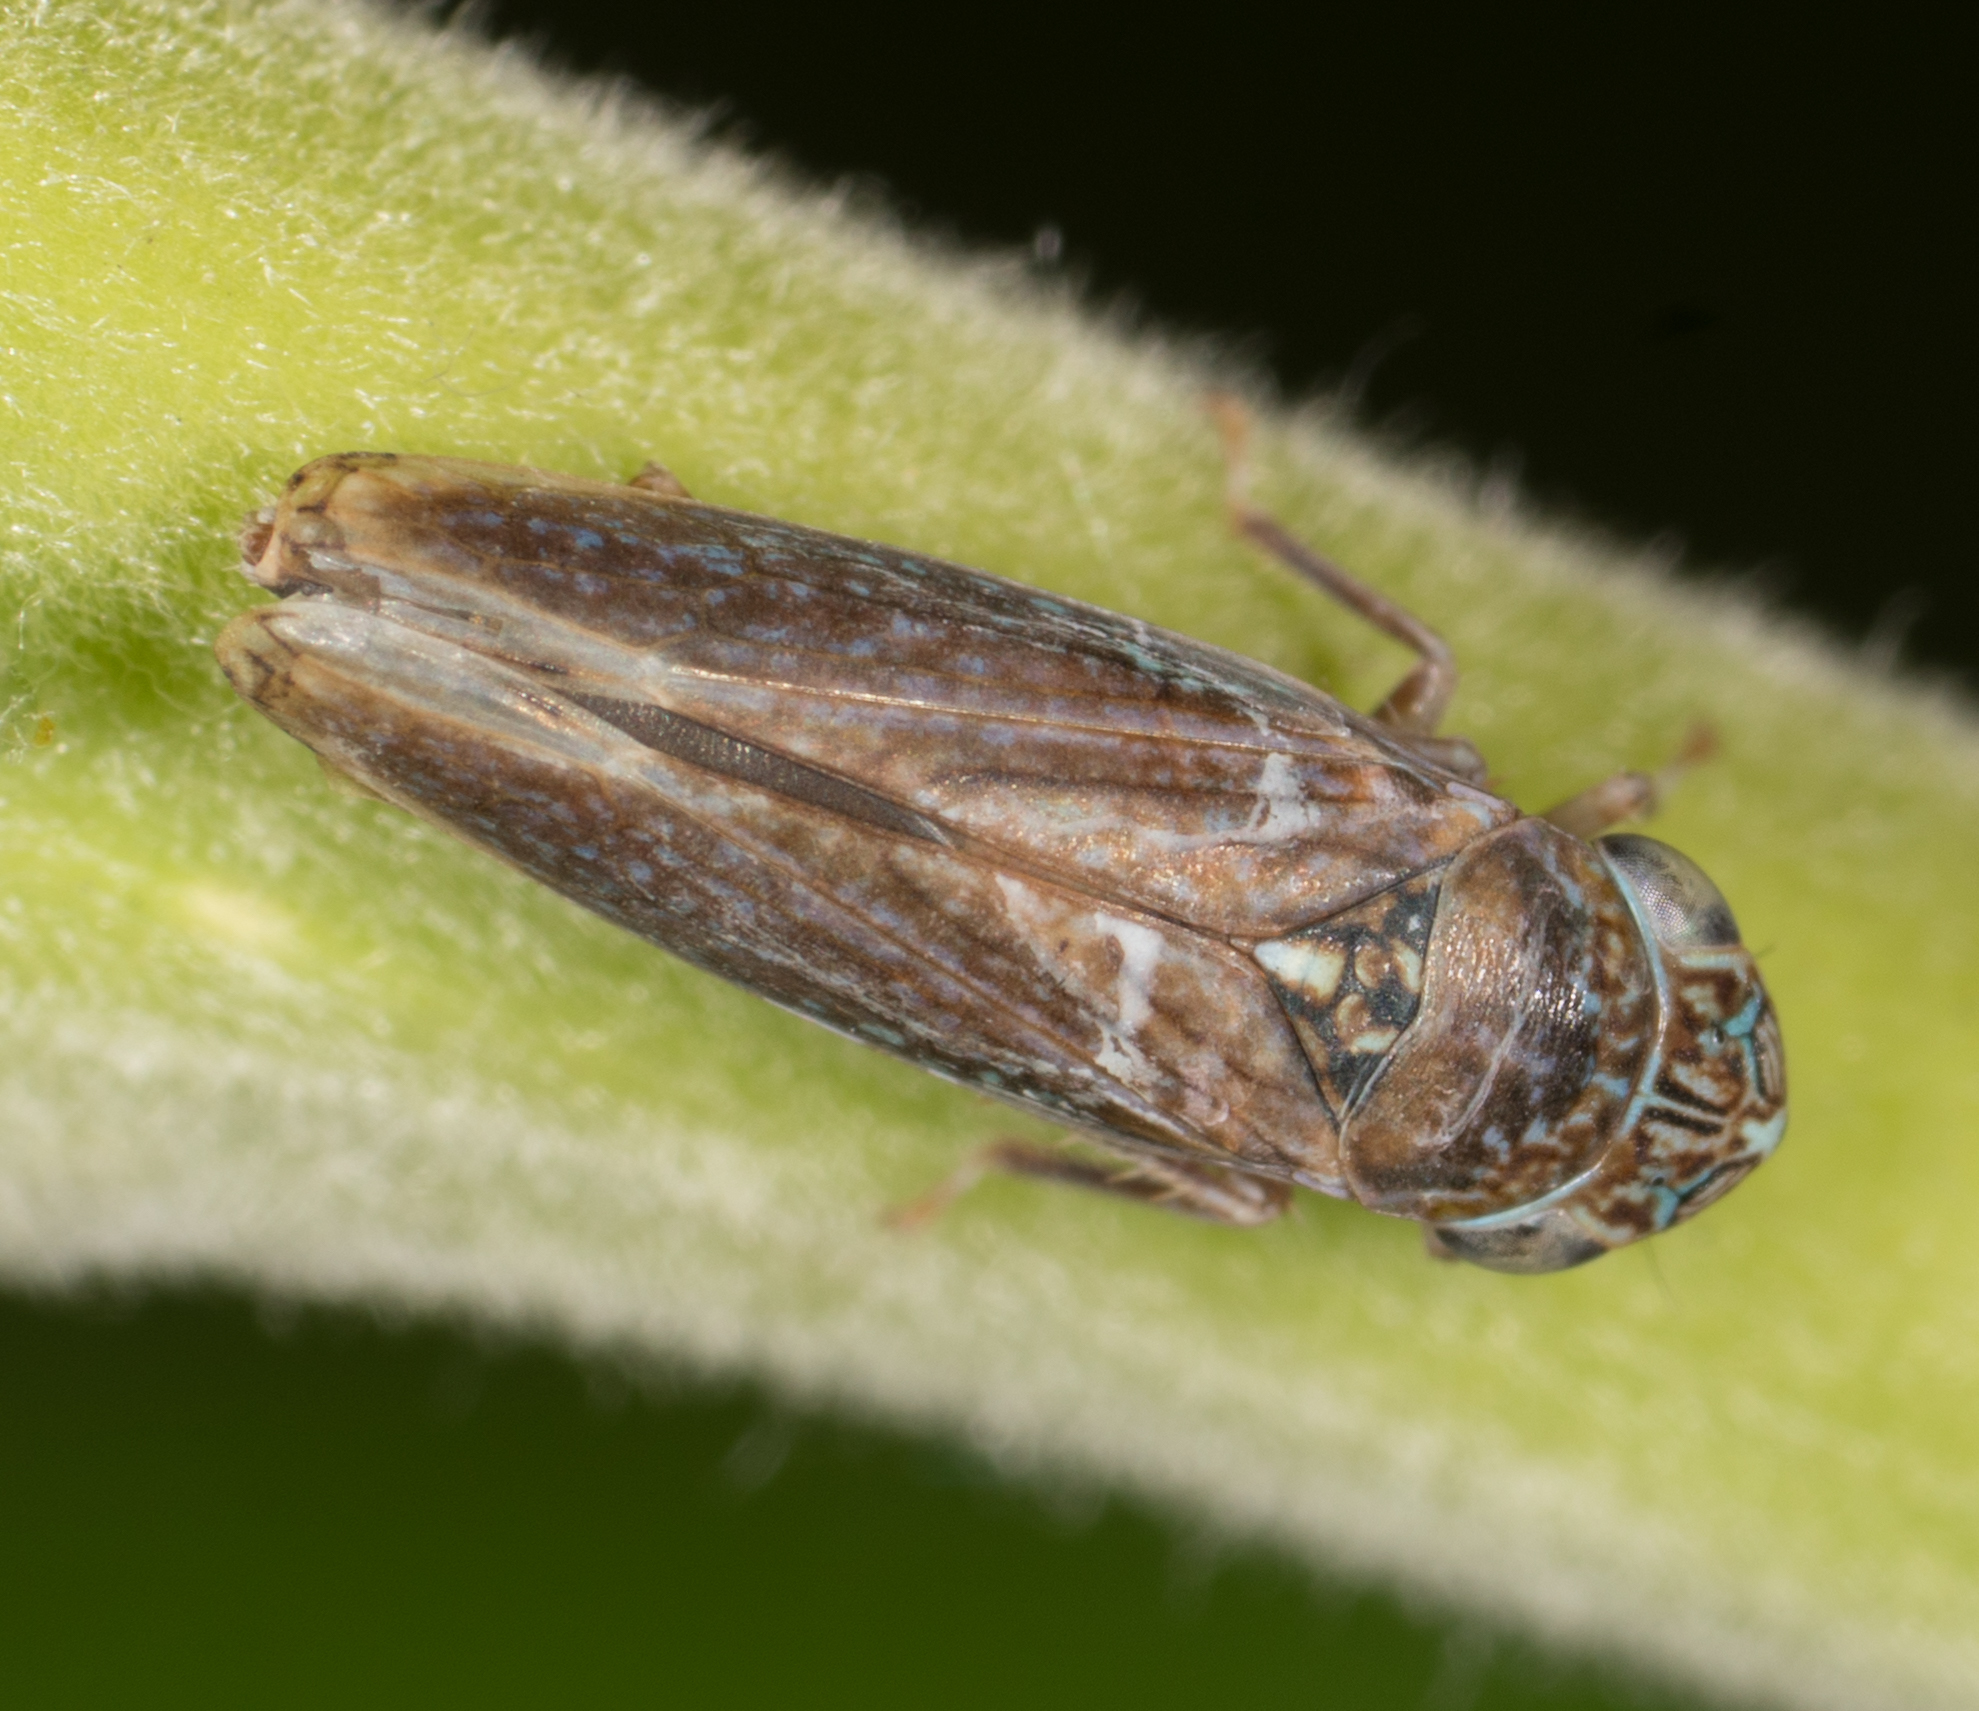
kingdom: Animalia
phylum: Arthropoda
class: Insecta
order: Hemiptera
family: Cicadellidae
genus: Graphocephala
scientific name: Graphocephala confluens
